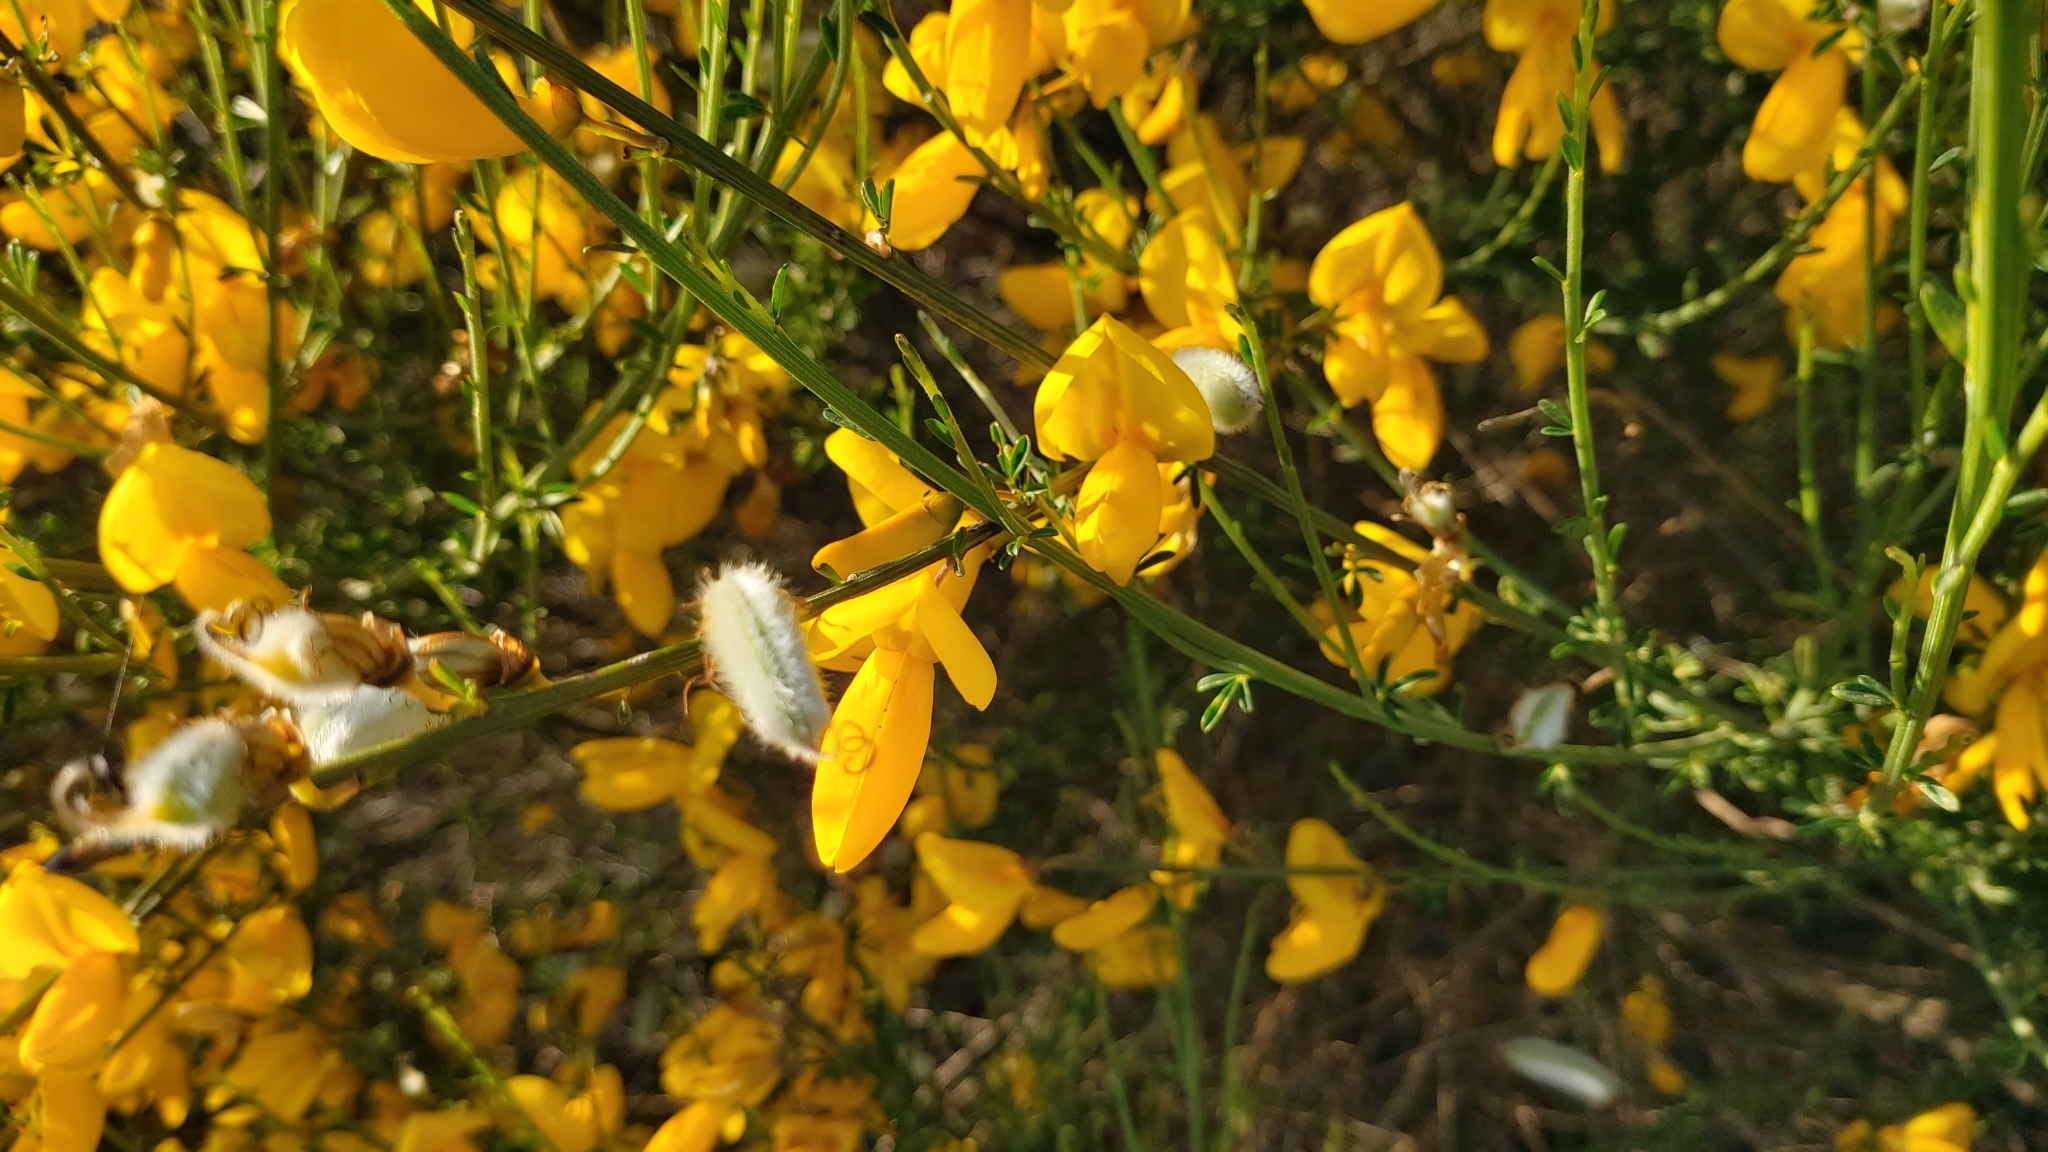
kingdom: Plantae
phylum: Tracheophyta
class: Magnoliopsida
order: Fabales
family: Fabaceae
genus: Cytisus
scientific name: Cytisus striatus
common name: Hairy-fruited broom
